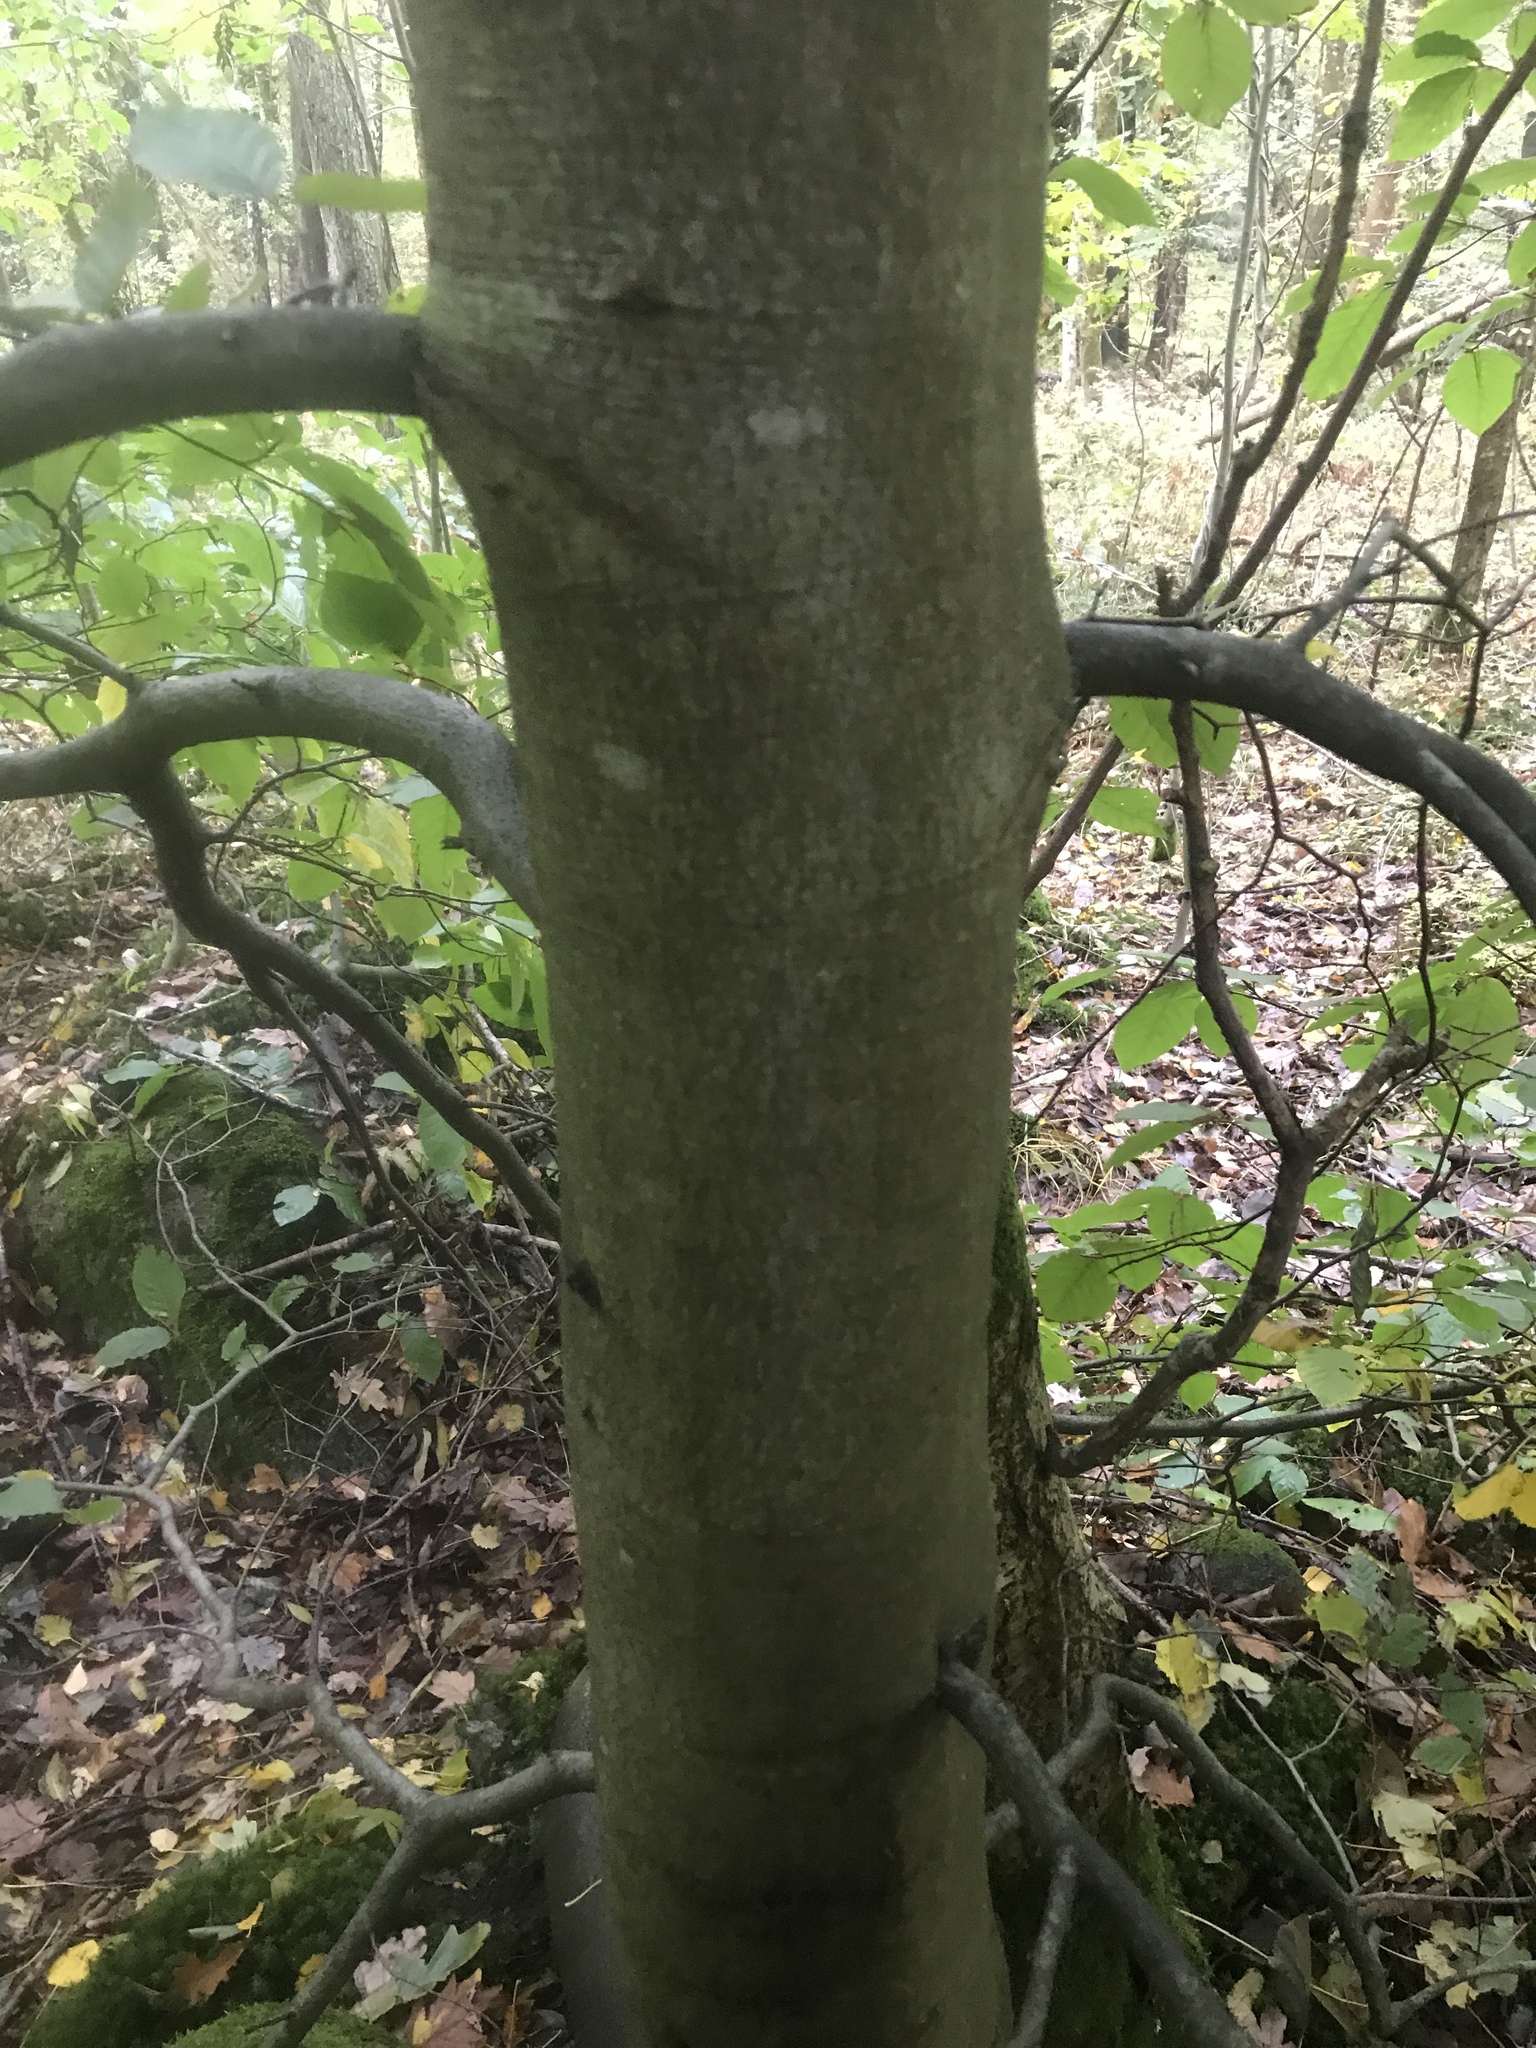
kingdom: Plantae
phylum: Tracheophyta
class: Magnoliopsida
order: Fagales
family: Fagaceae
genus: Fagus
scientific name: Fagus sylvatica
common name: Beech
